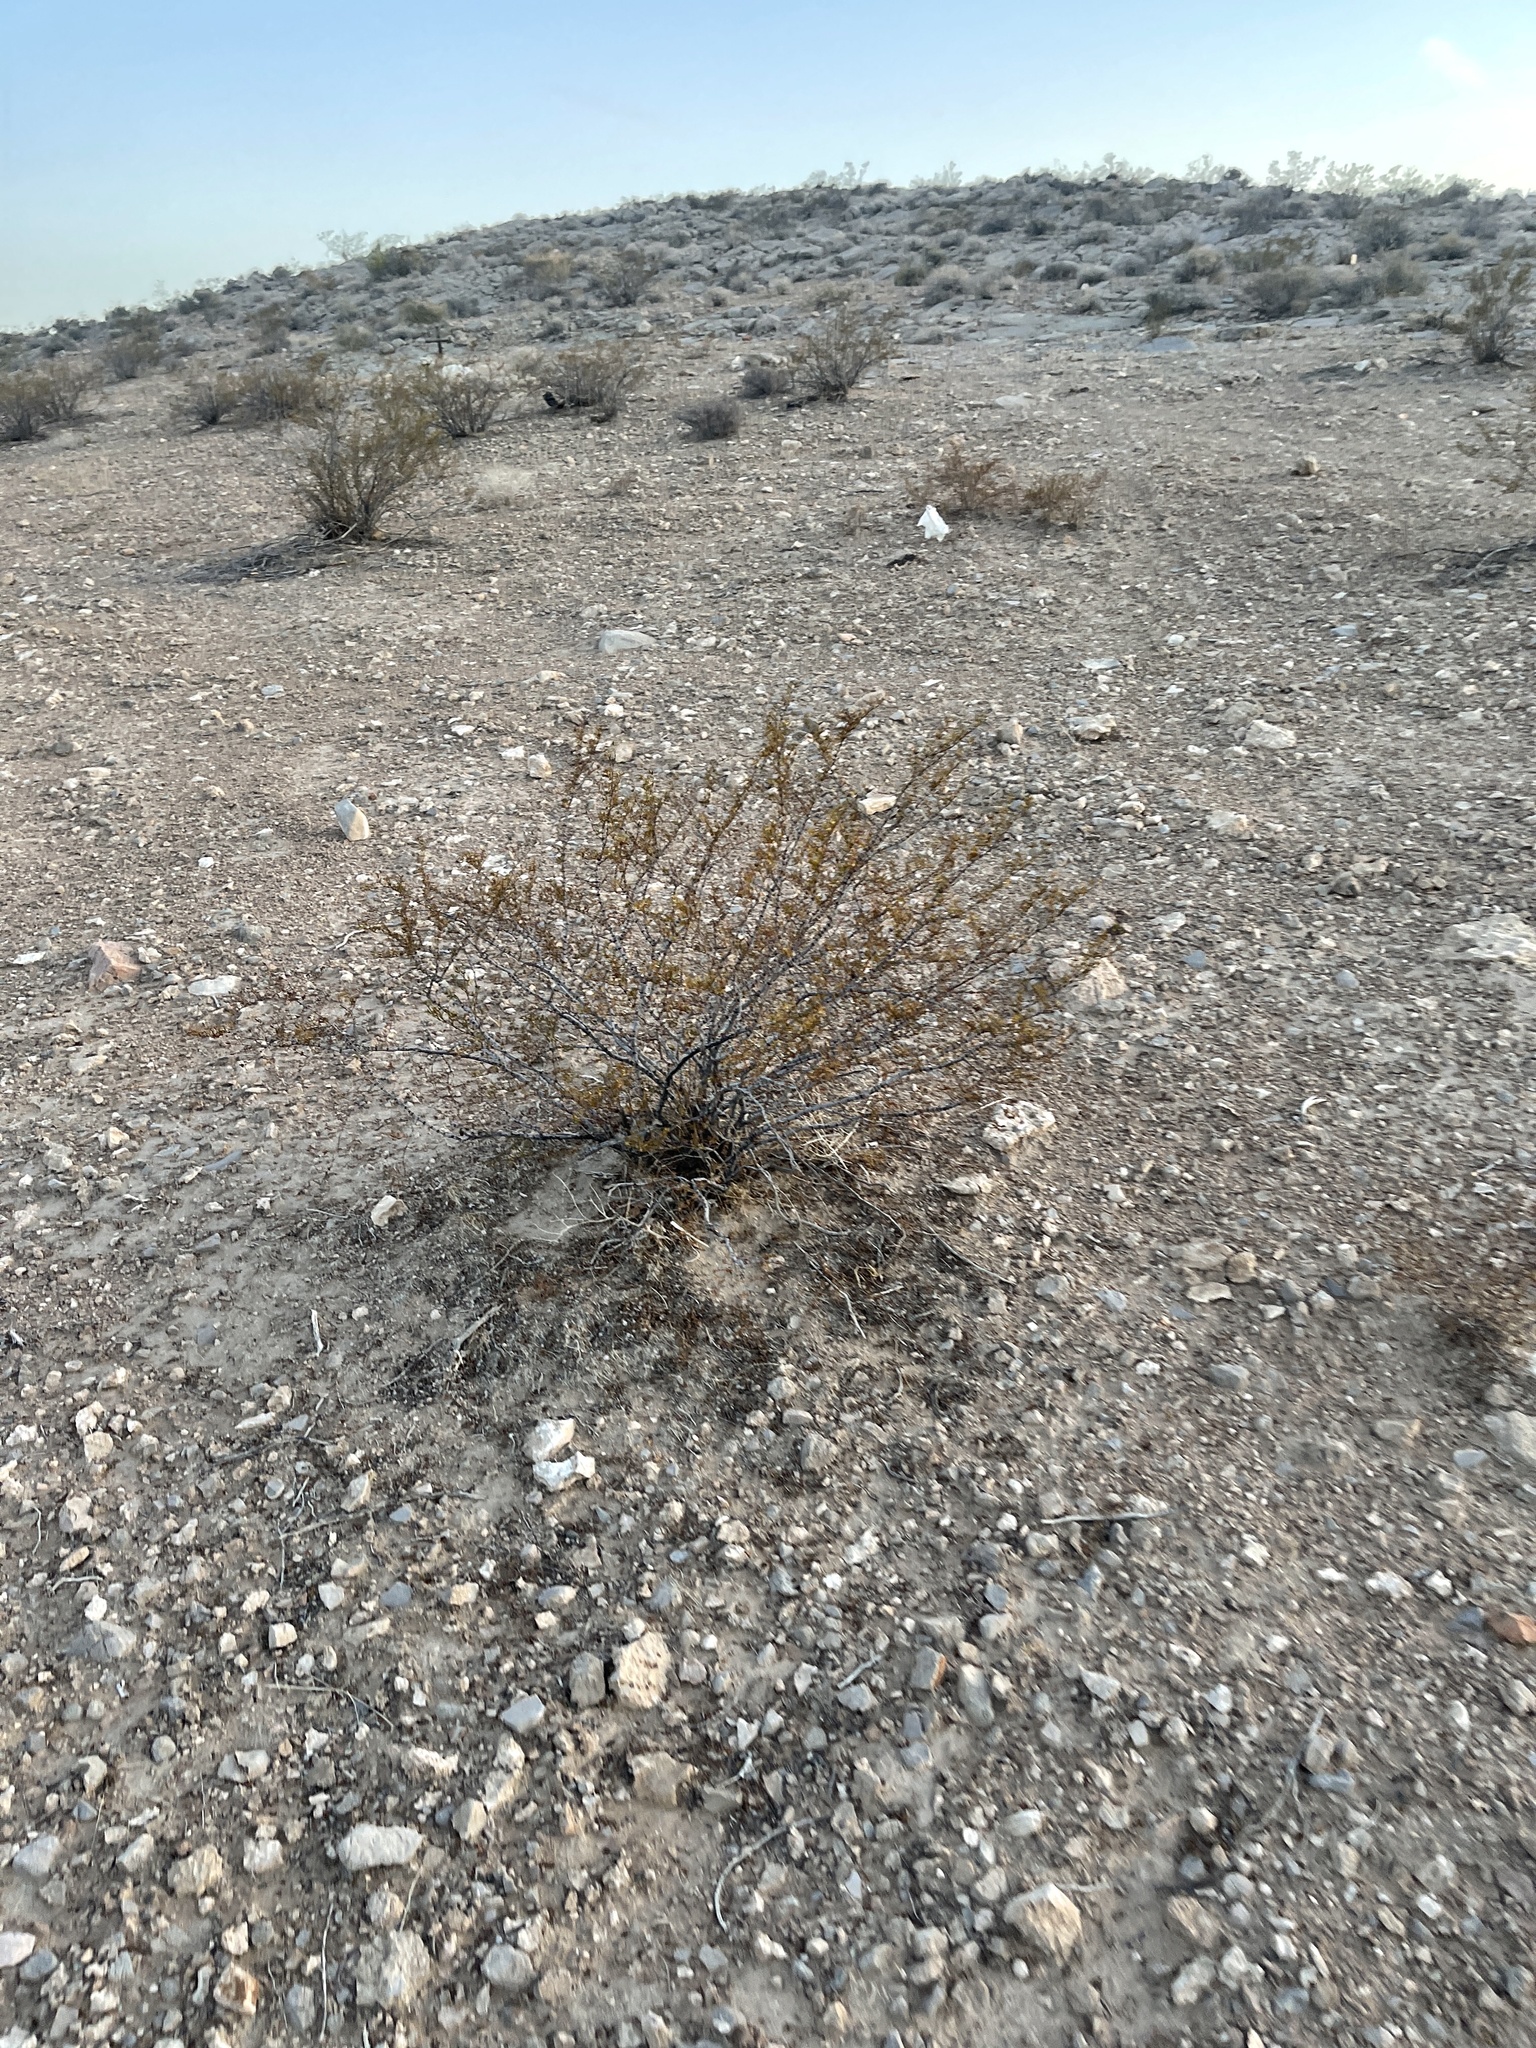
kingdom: Plantae
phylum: Tracheophyta
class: Magnoliopsida
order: Zygophyllales
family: Zygophyllaceae
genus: Larrea
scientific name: Larrea tridentata
